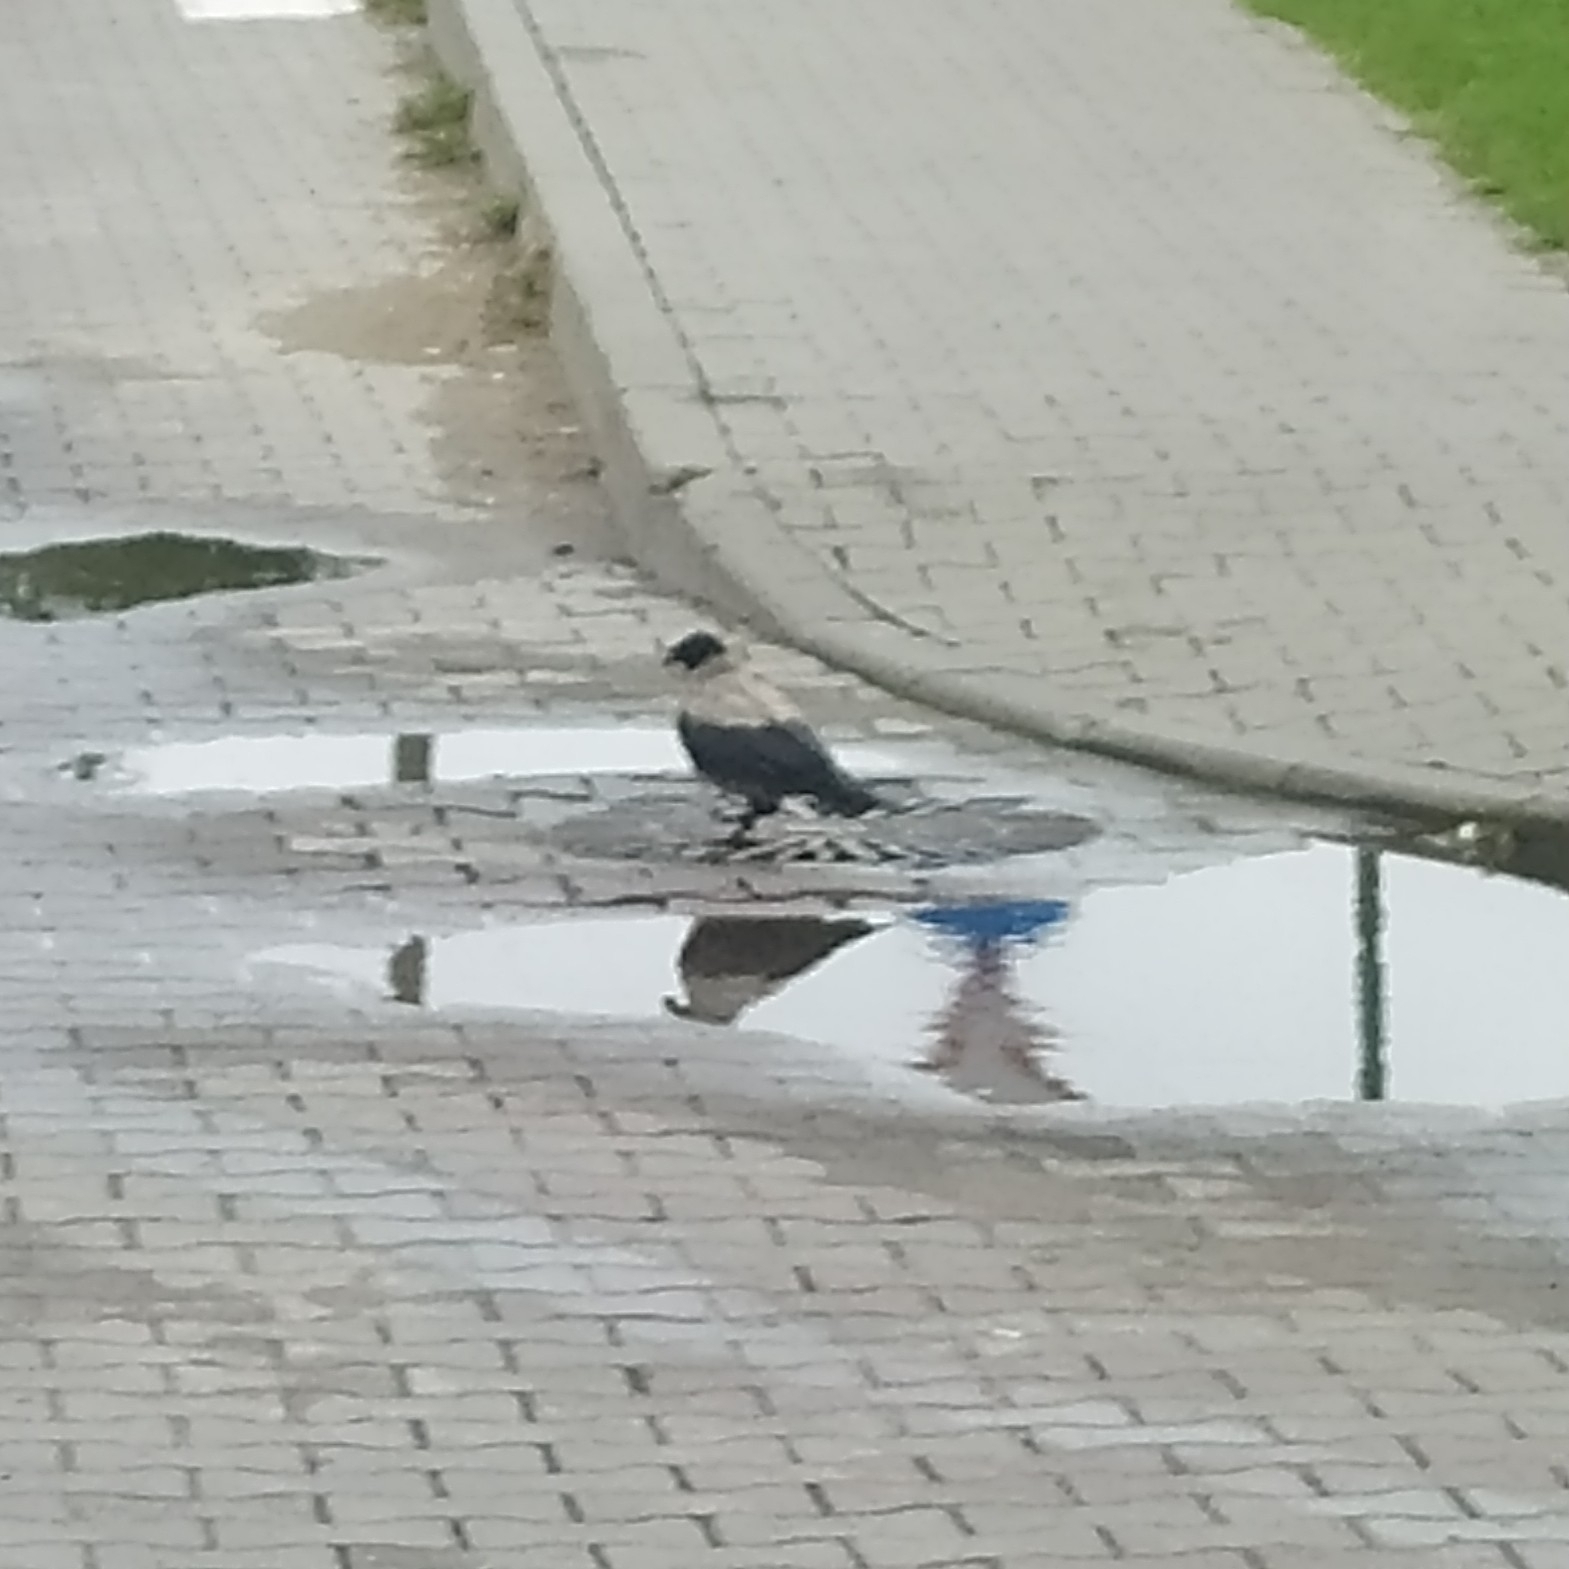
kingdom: Animalia
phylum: Chordata
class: Aves
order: Passeriformes
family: Corvidae
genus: Corvus
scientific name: Corvus cornix
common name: Hooded crow
